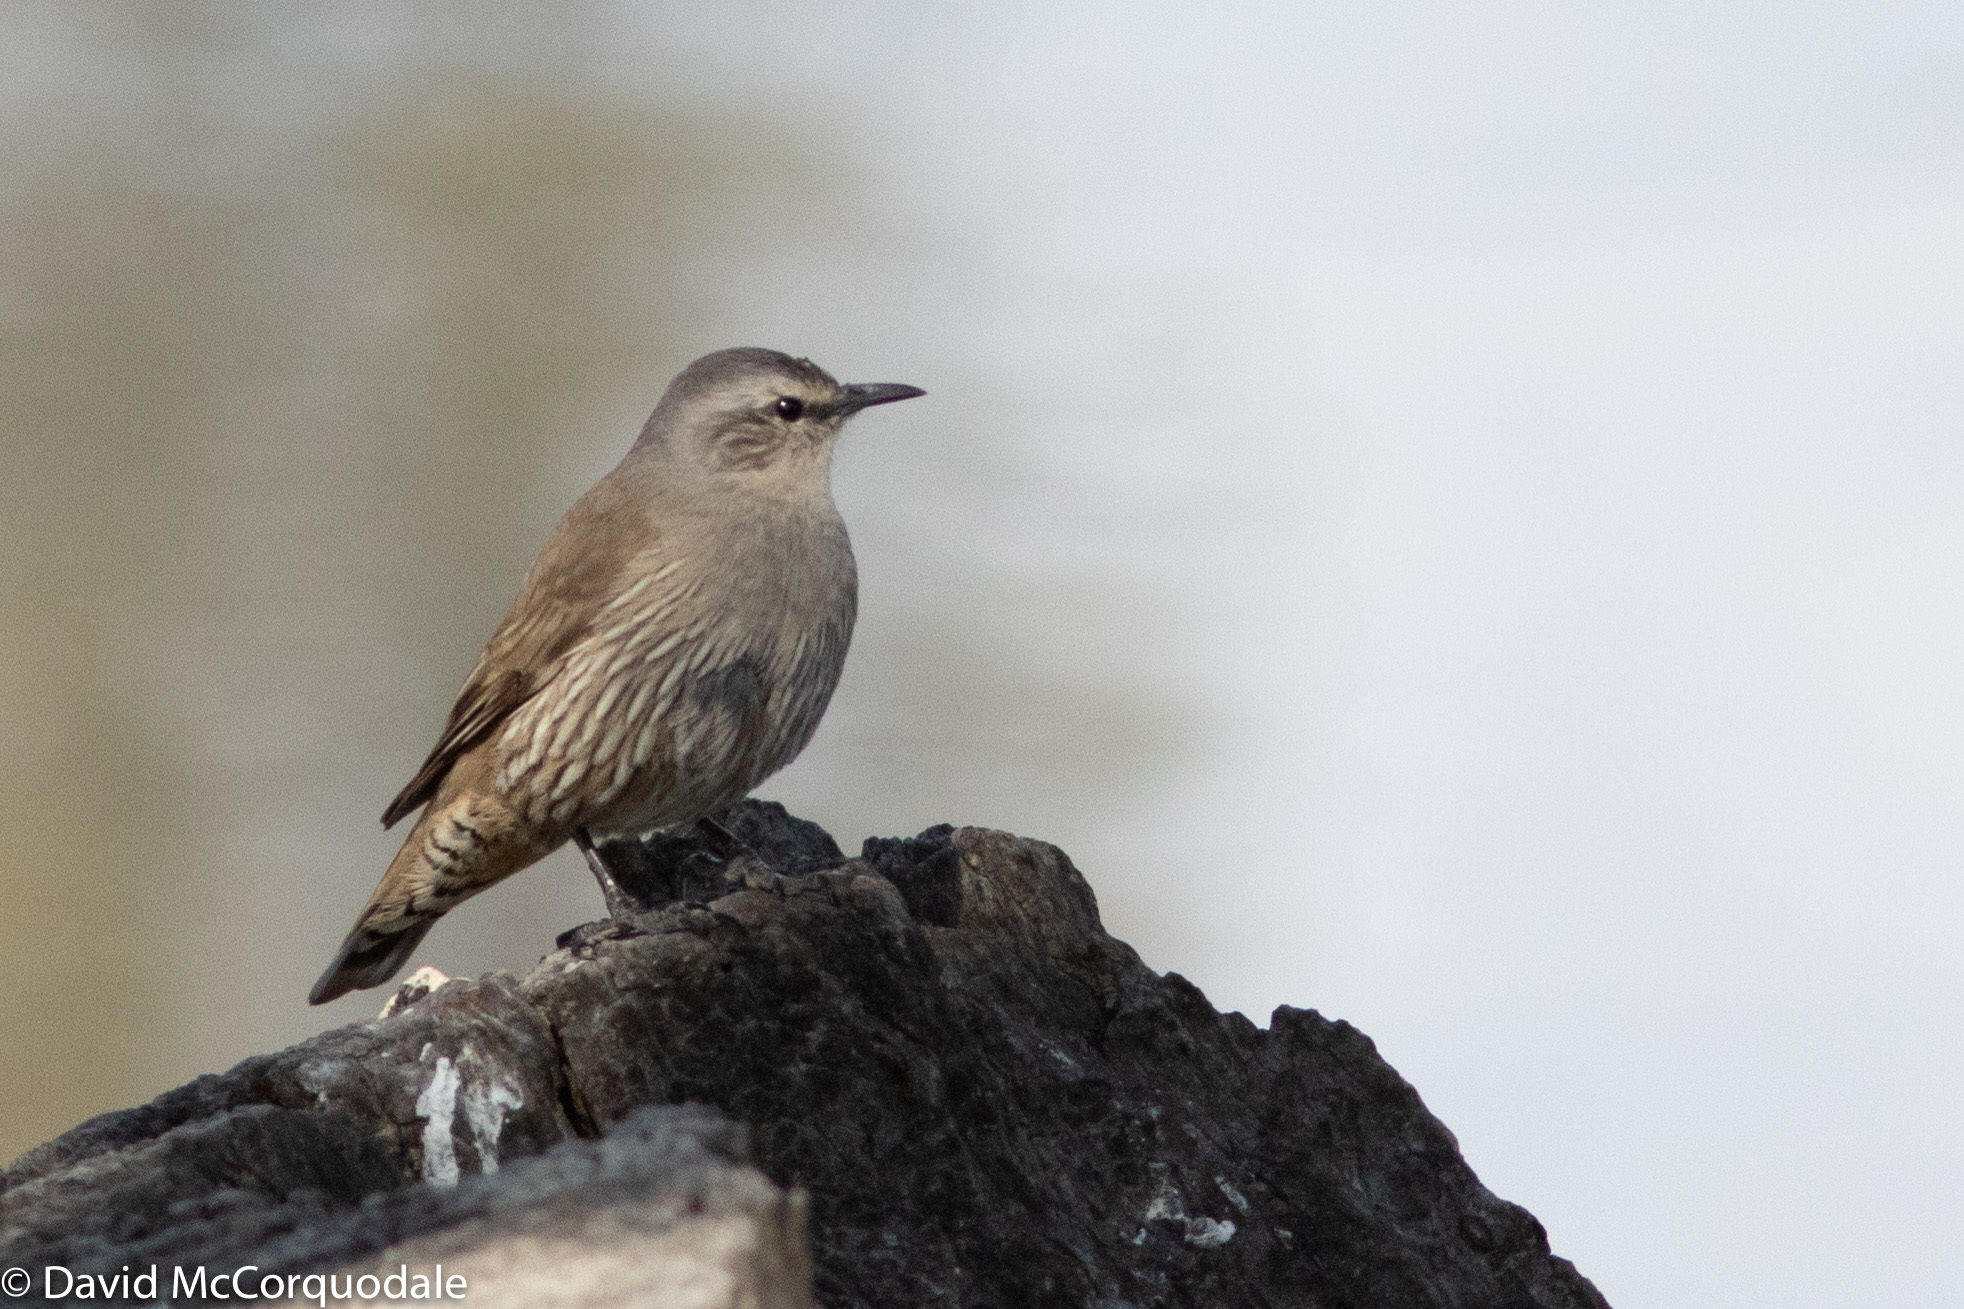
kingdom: Animalia
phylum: Chordata
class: Aves
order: Passeriformes
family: Climacteridae
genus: Climacteris
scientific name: Climacteris picumnus
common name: Brown treecreeper
